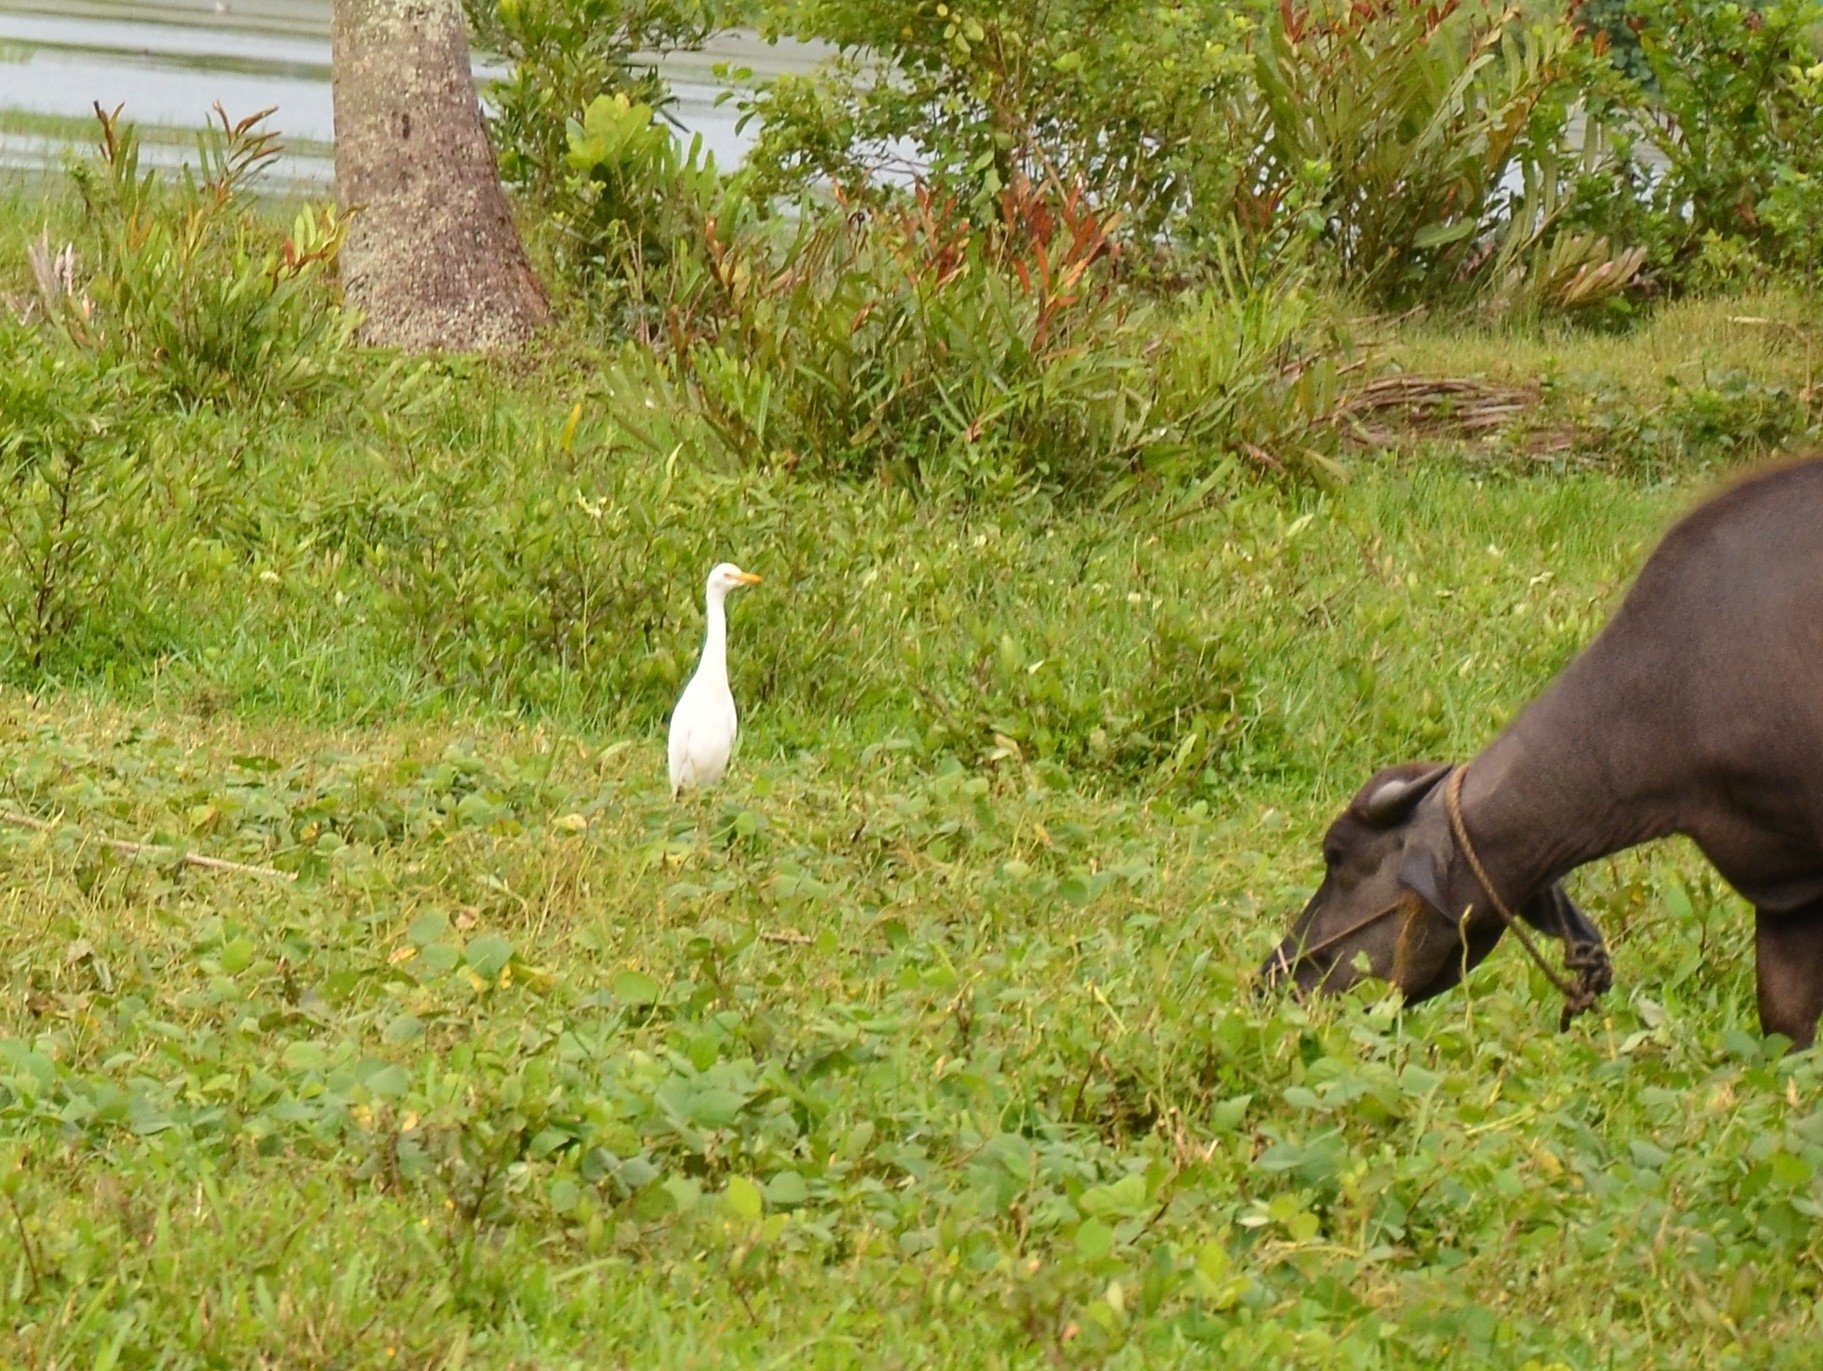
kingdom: Animalia
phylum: Chordata
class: Aves
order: Pelecaniformes
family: Ardeidae
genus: Bubulcus
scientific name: Bubulcus coromandus
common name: Eastern cattle egret
